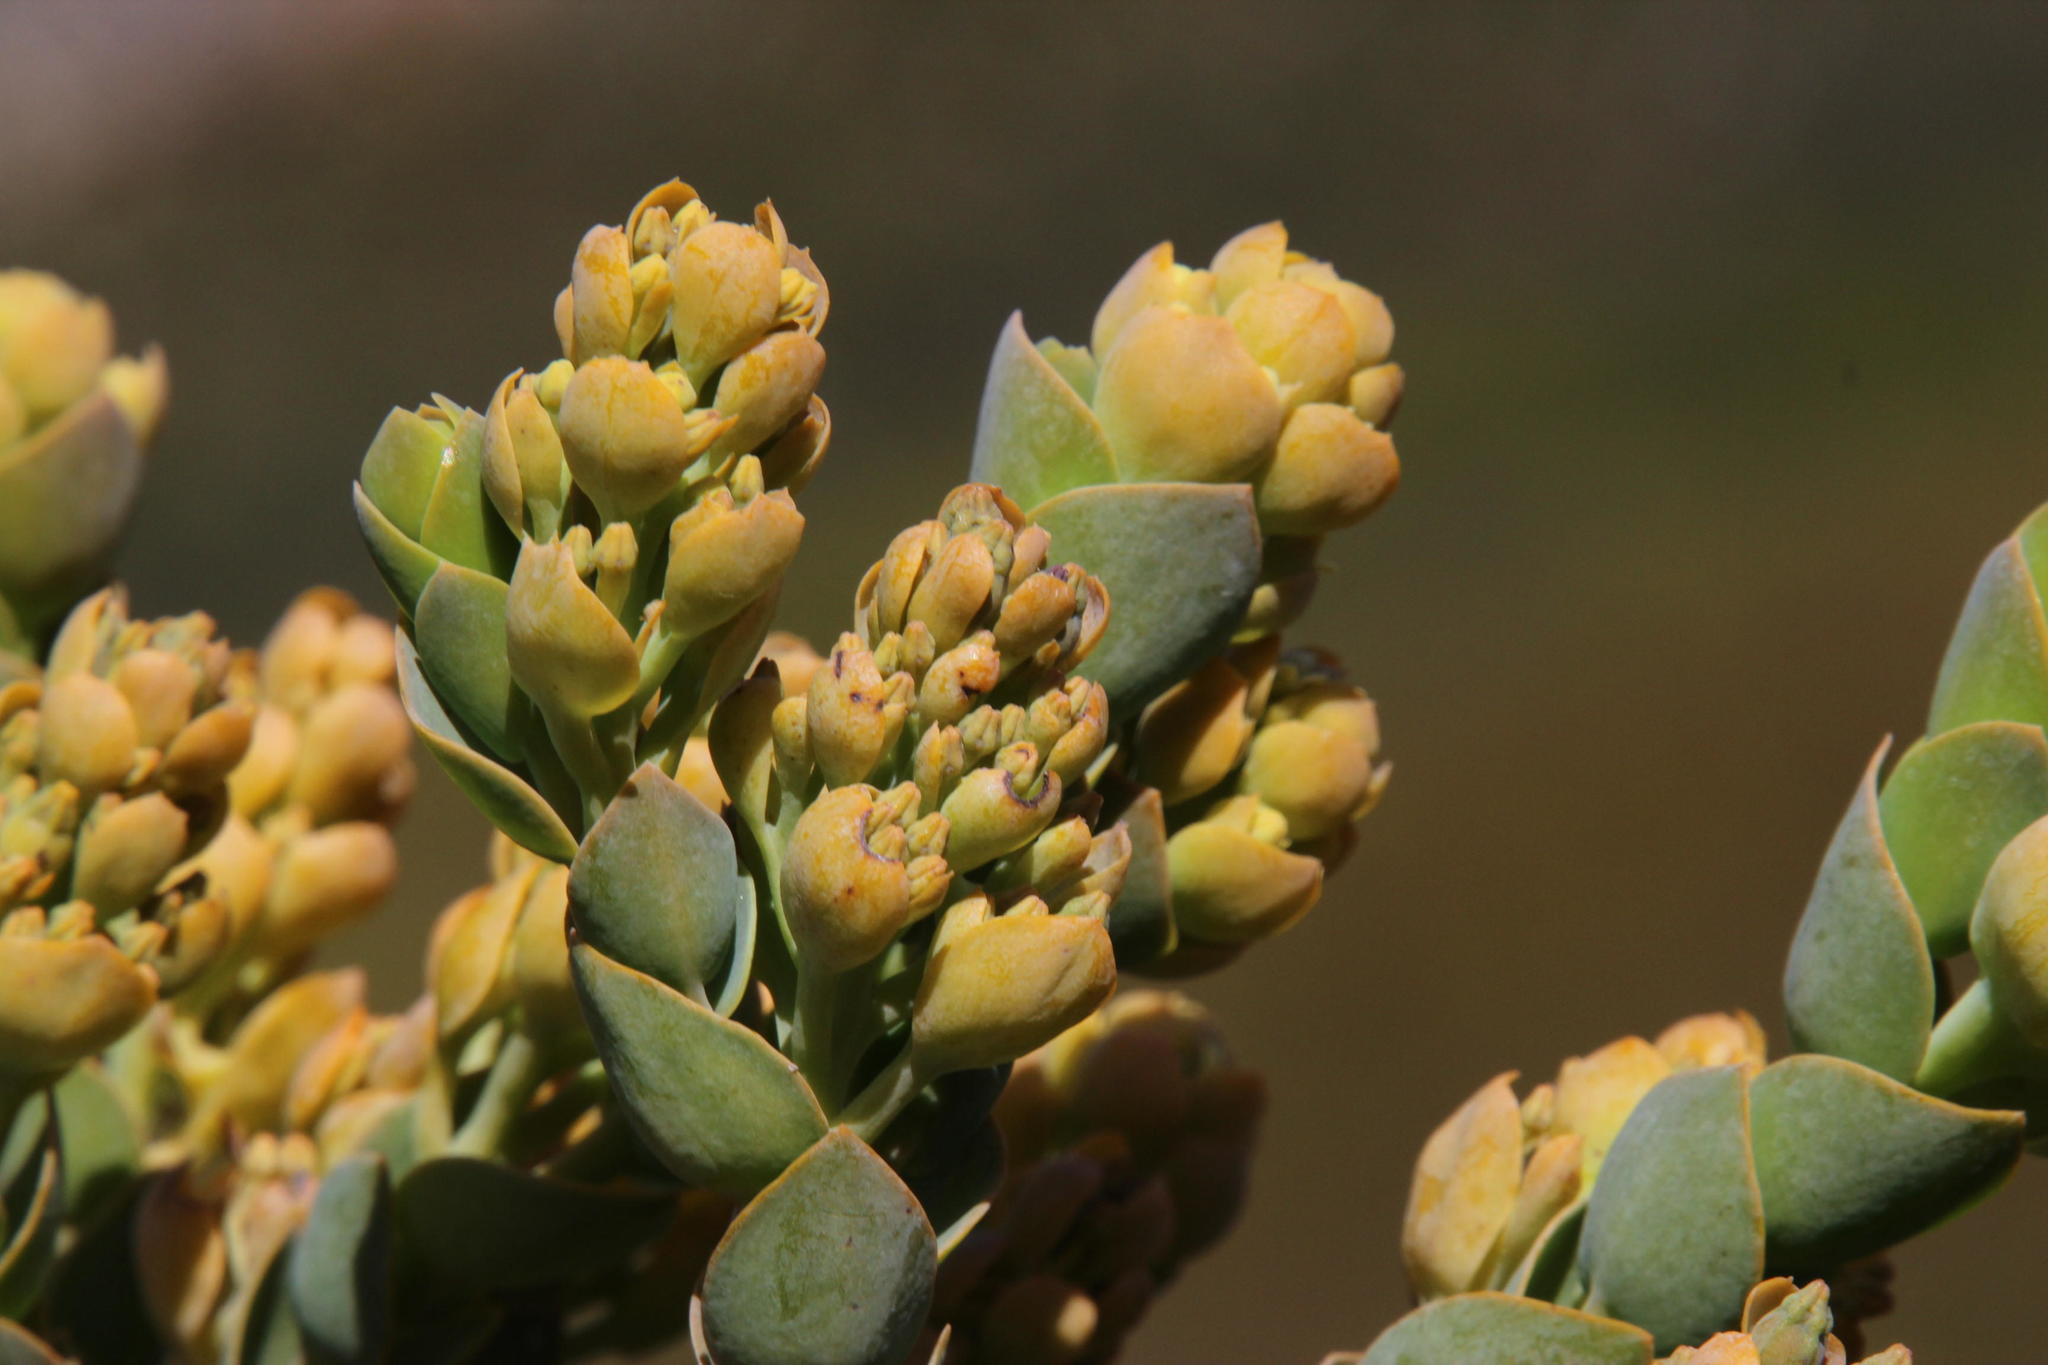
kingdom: Plantae
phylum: Tracheophyta
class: Magnoliopsida
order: Santalales
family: Thesiaceae
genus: Thesium
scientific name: Thesium euphorbioides
